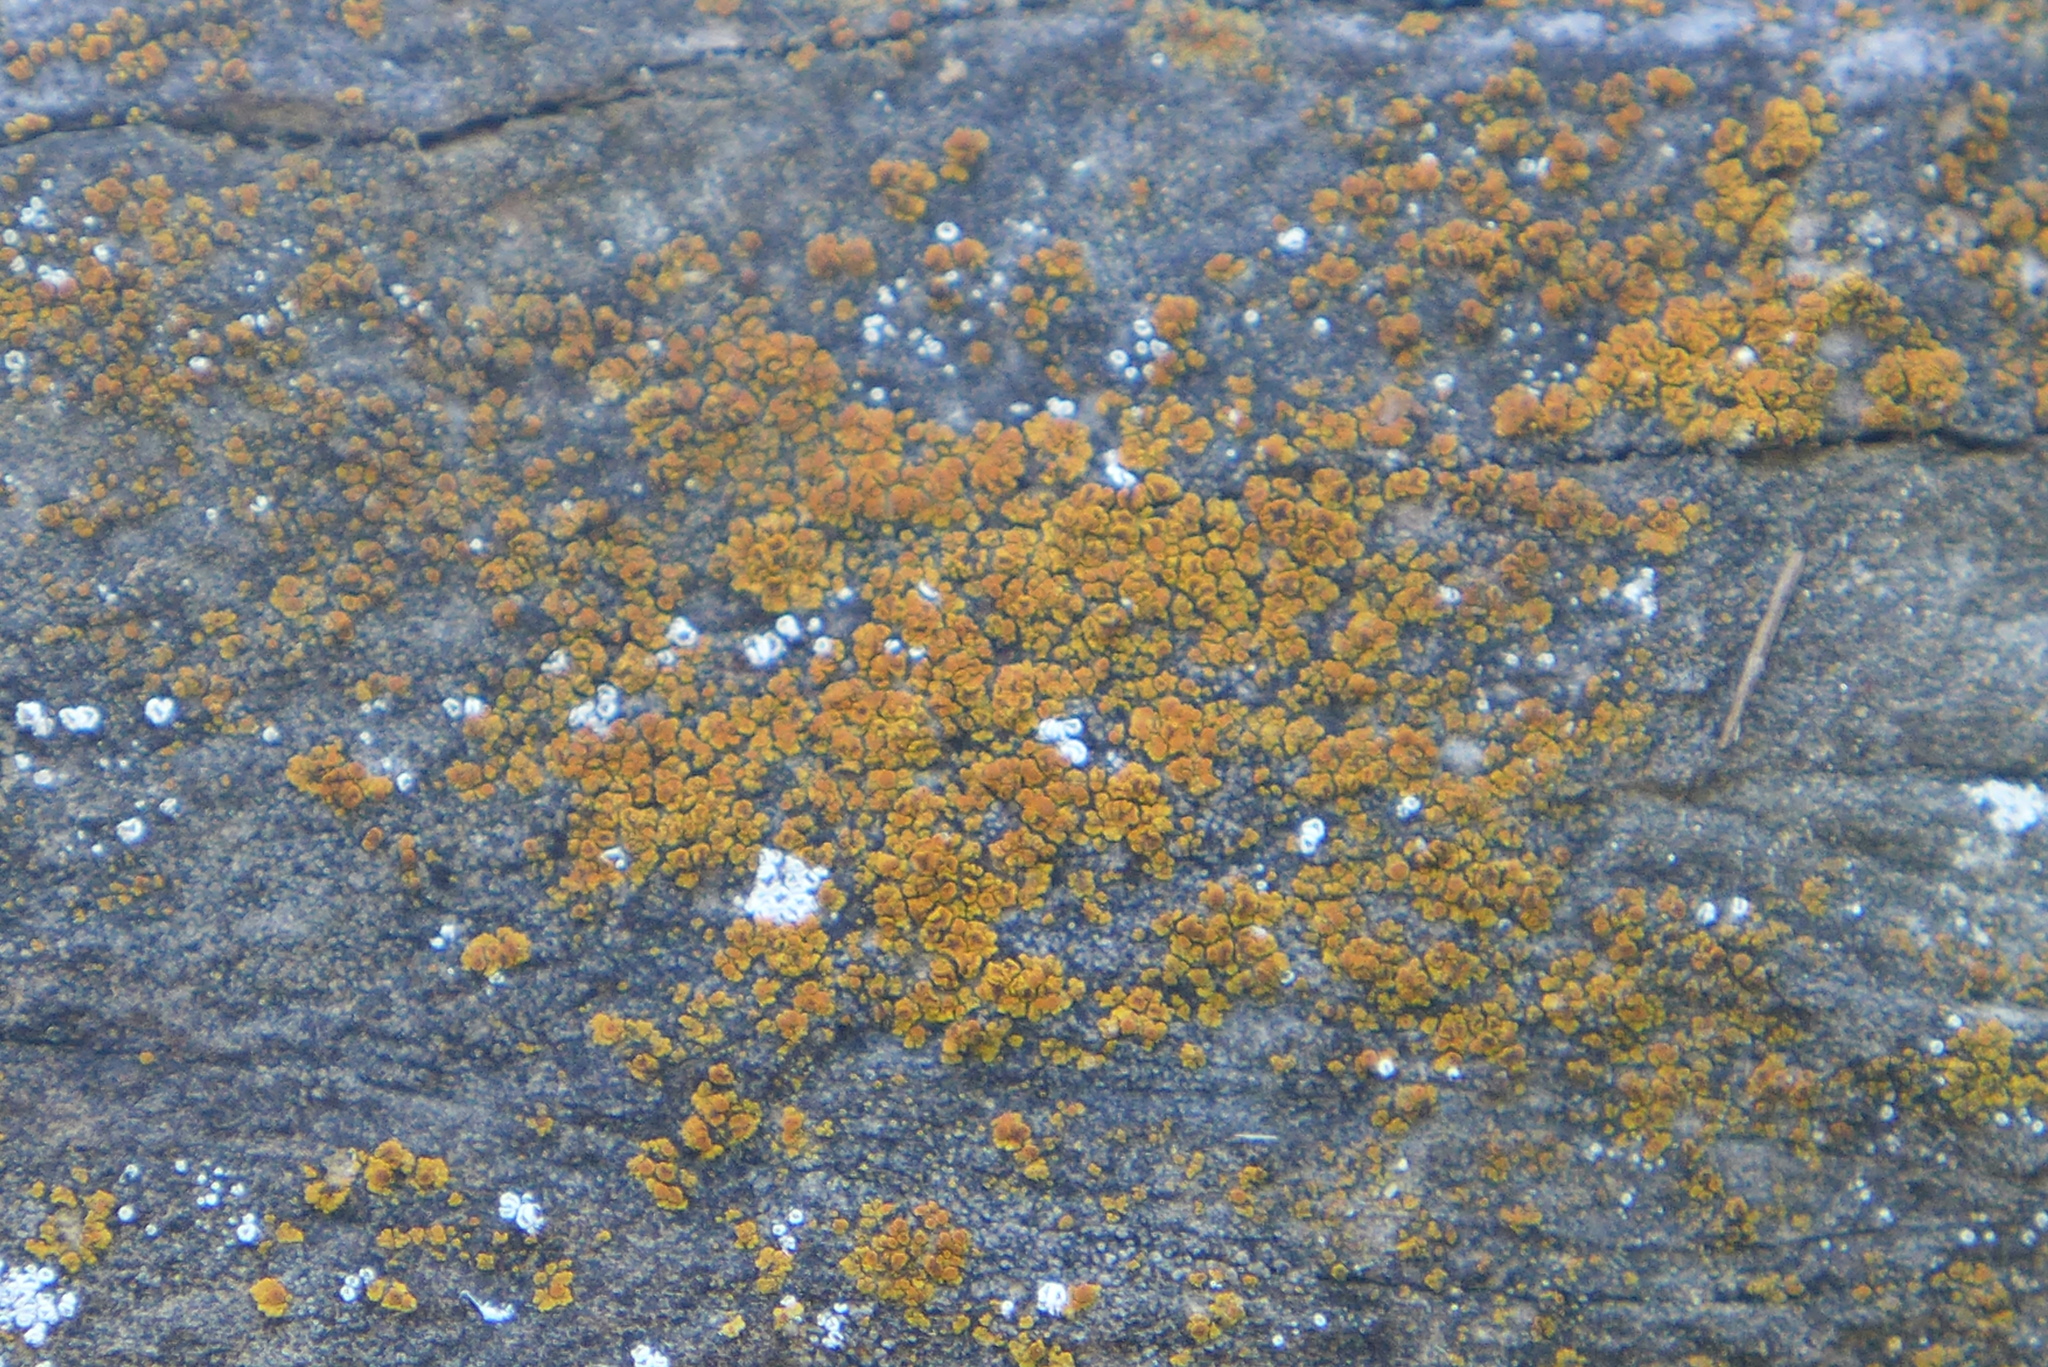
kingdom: Fungi
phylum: Ascomycota
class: Lecanoromycetes
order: Teloschistales
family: Teloschistaceae
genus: Squamulea
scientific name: Squamulea subsoluta
